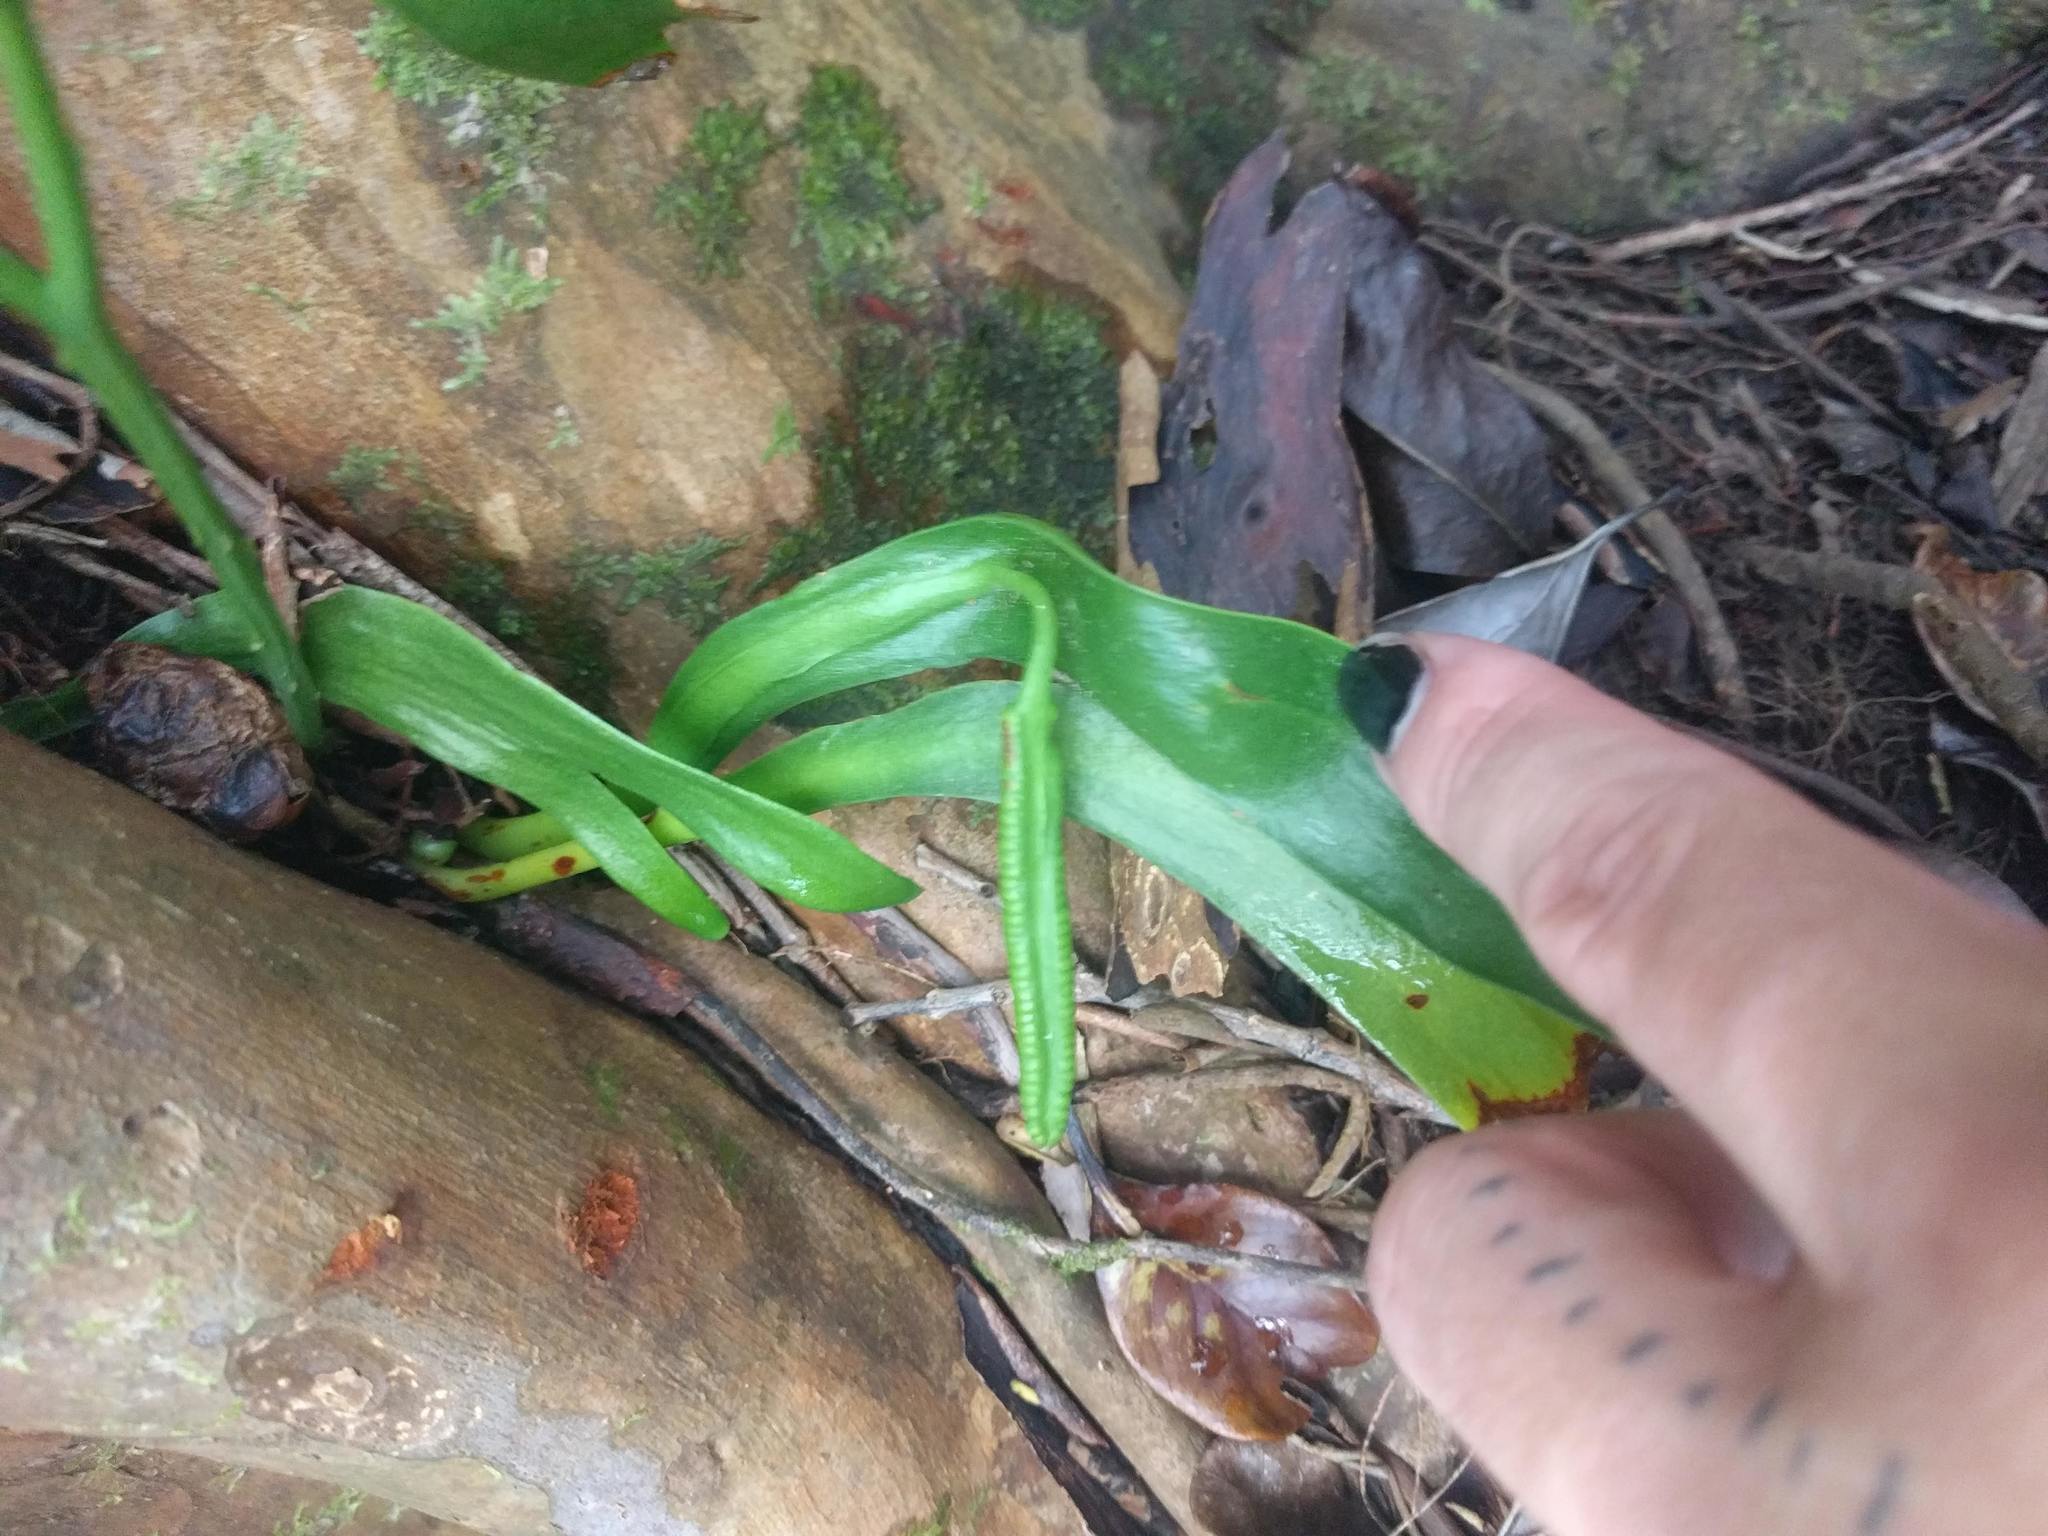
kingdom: Plantae
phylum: Tracheophyta
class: Polypodiopsida
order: Ophioglossales
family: Ophioglossaceae
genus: Ophioderma
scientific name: Ophioderma falcatum
